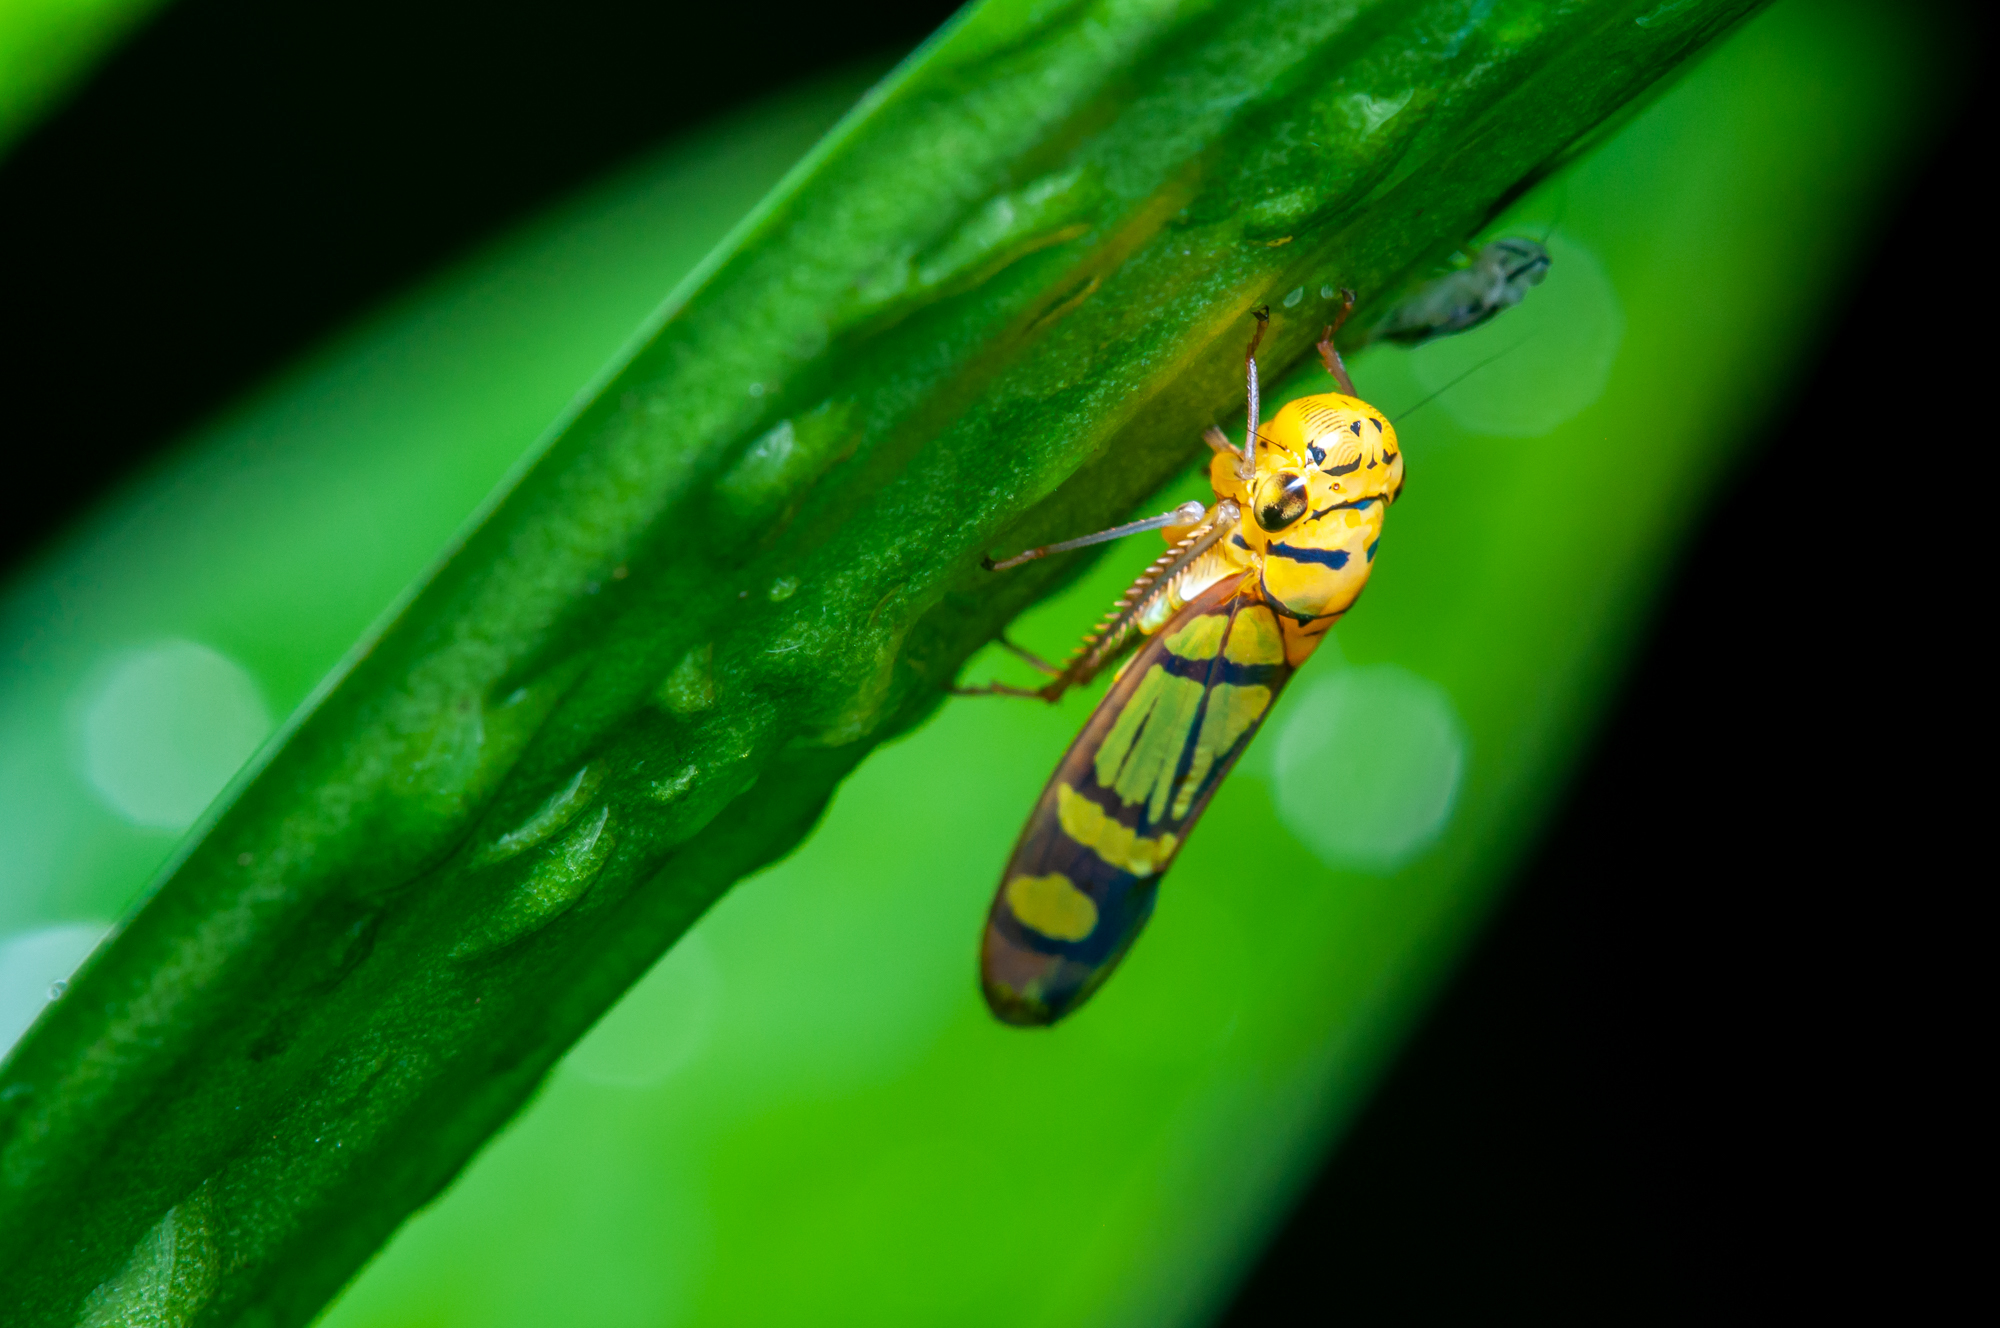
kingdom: Animalia
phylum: Arthropoda
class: Insecta
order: Hemiptera
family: Cicadellidae
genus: Dilobopterus
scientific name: Dilobopterus instratus
